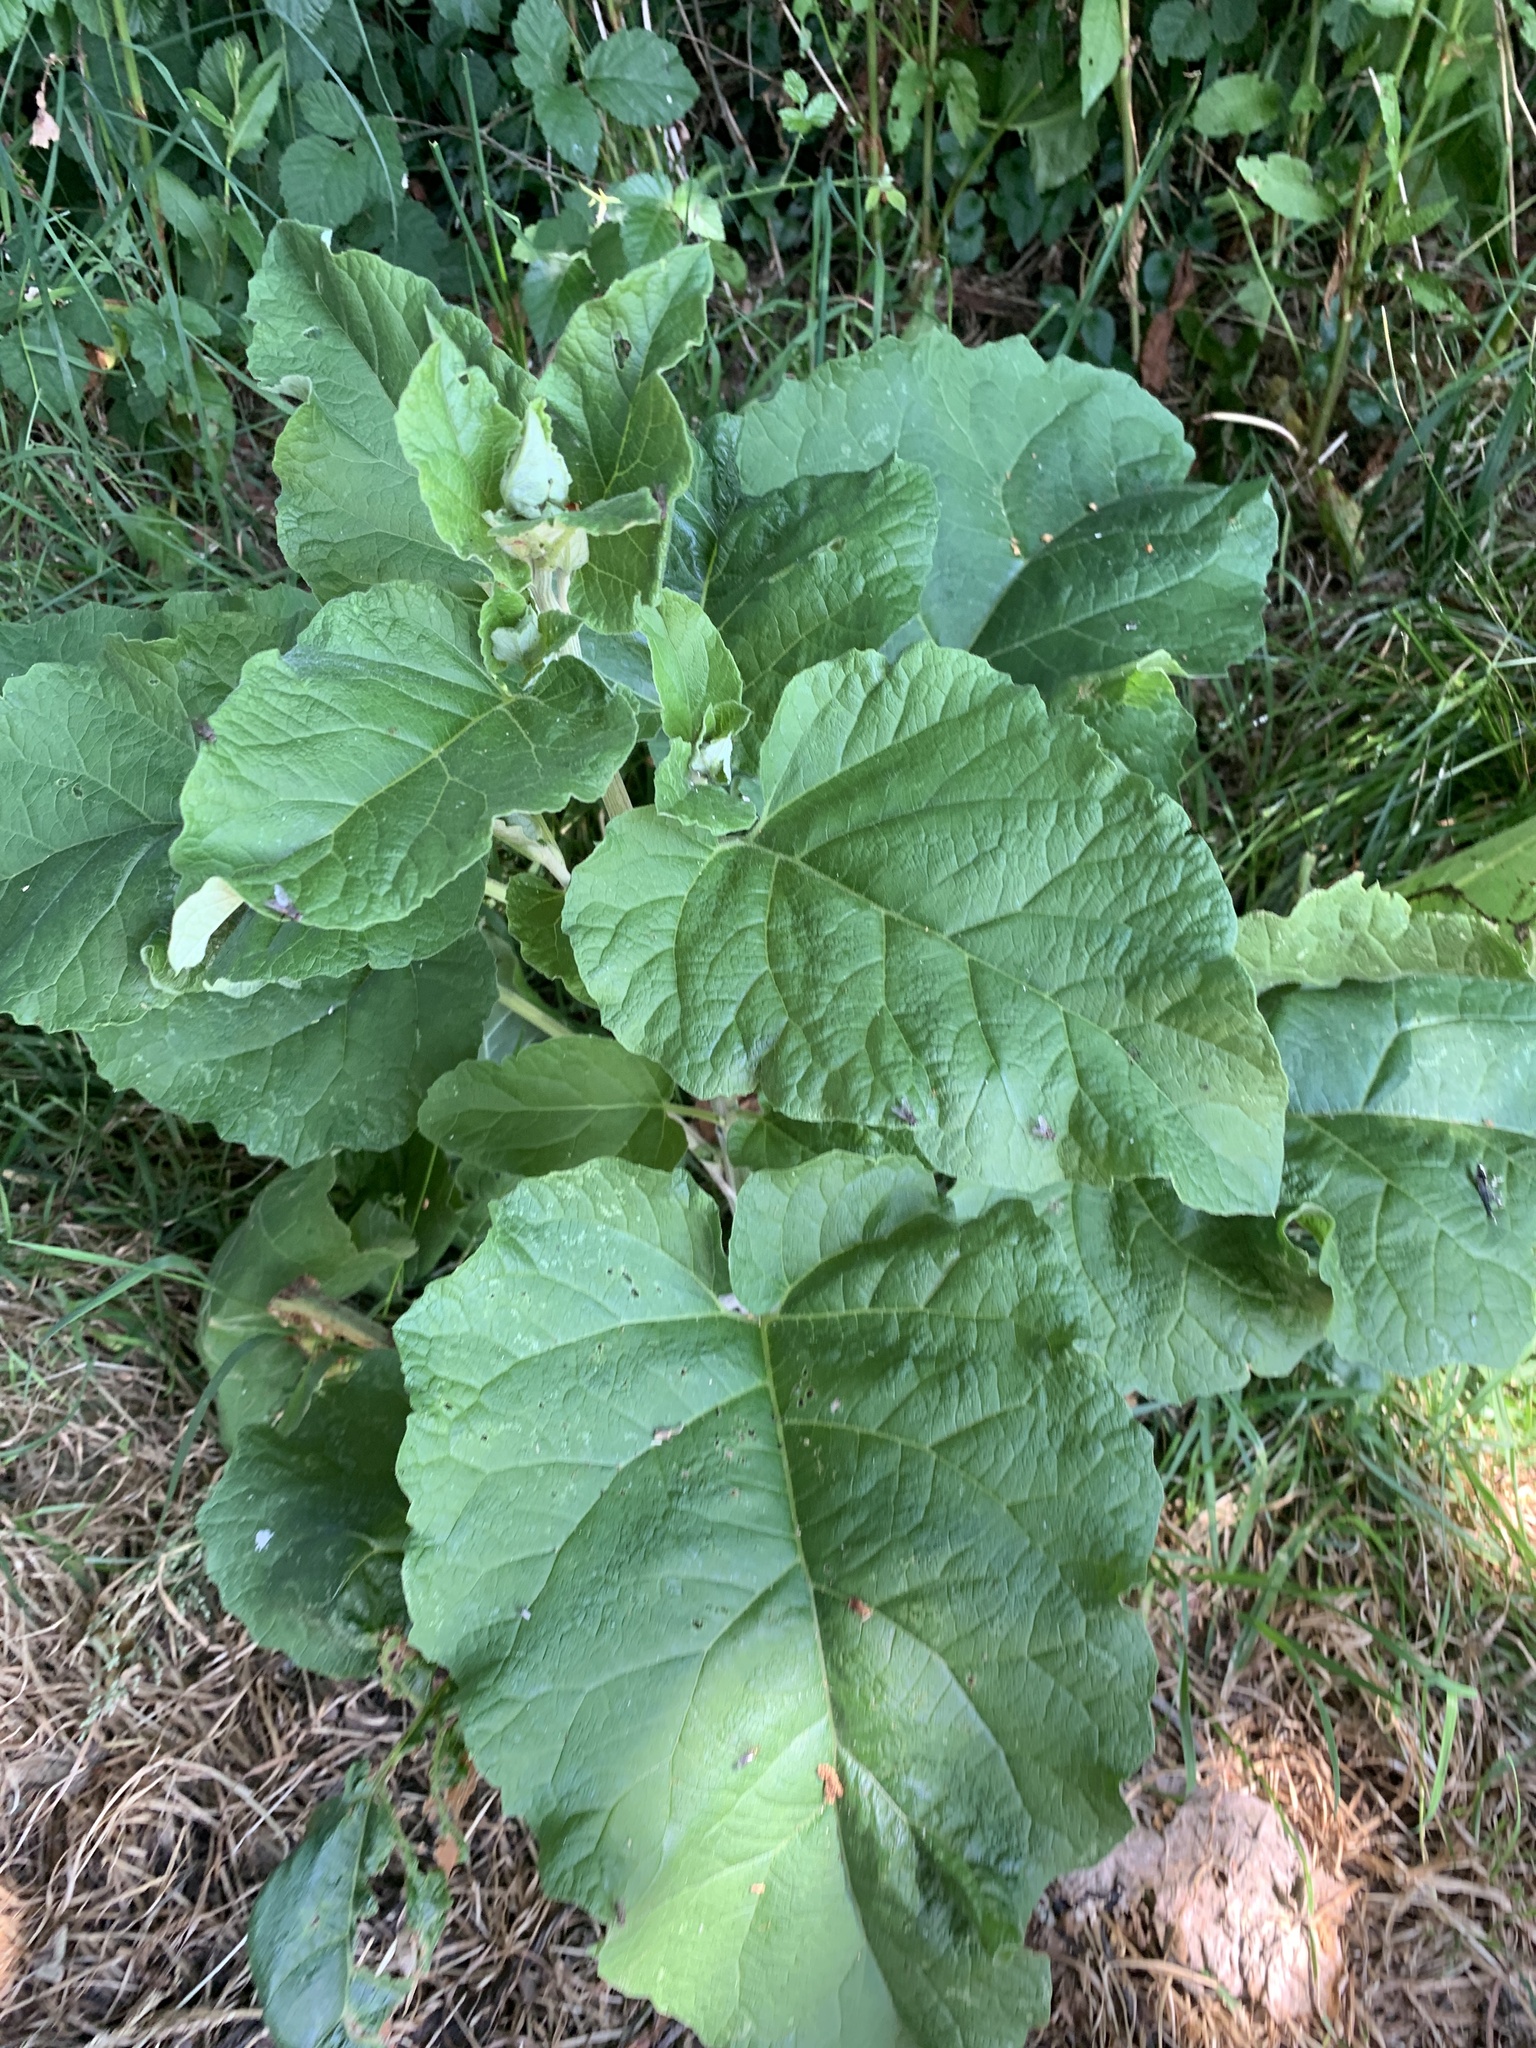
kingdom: Plantae
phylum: Tracheophyta
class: Magnoliopsida
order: Asterales
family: Asteraceae
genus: Arctium
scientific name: Arctium lappa
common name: Greater burdock
